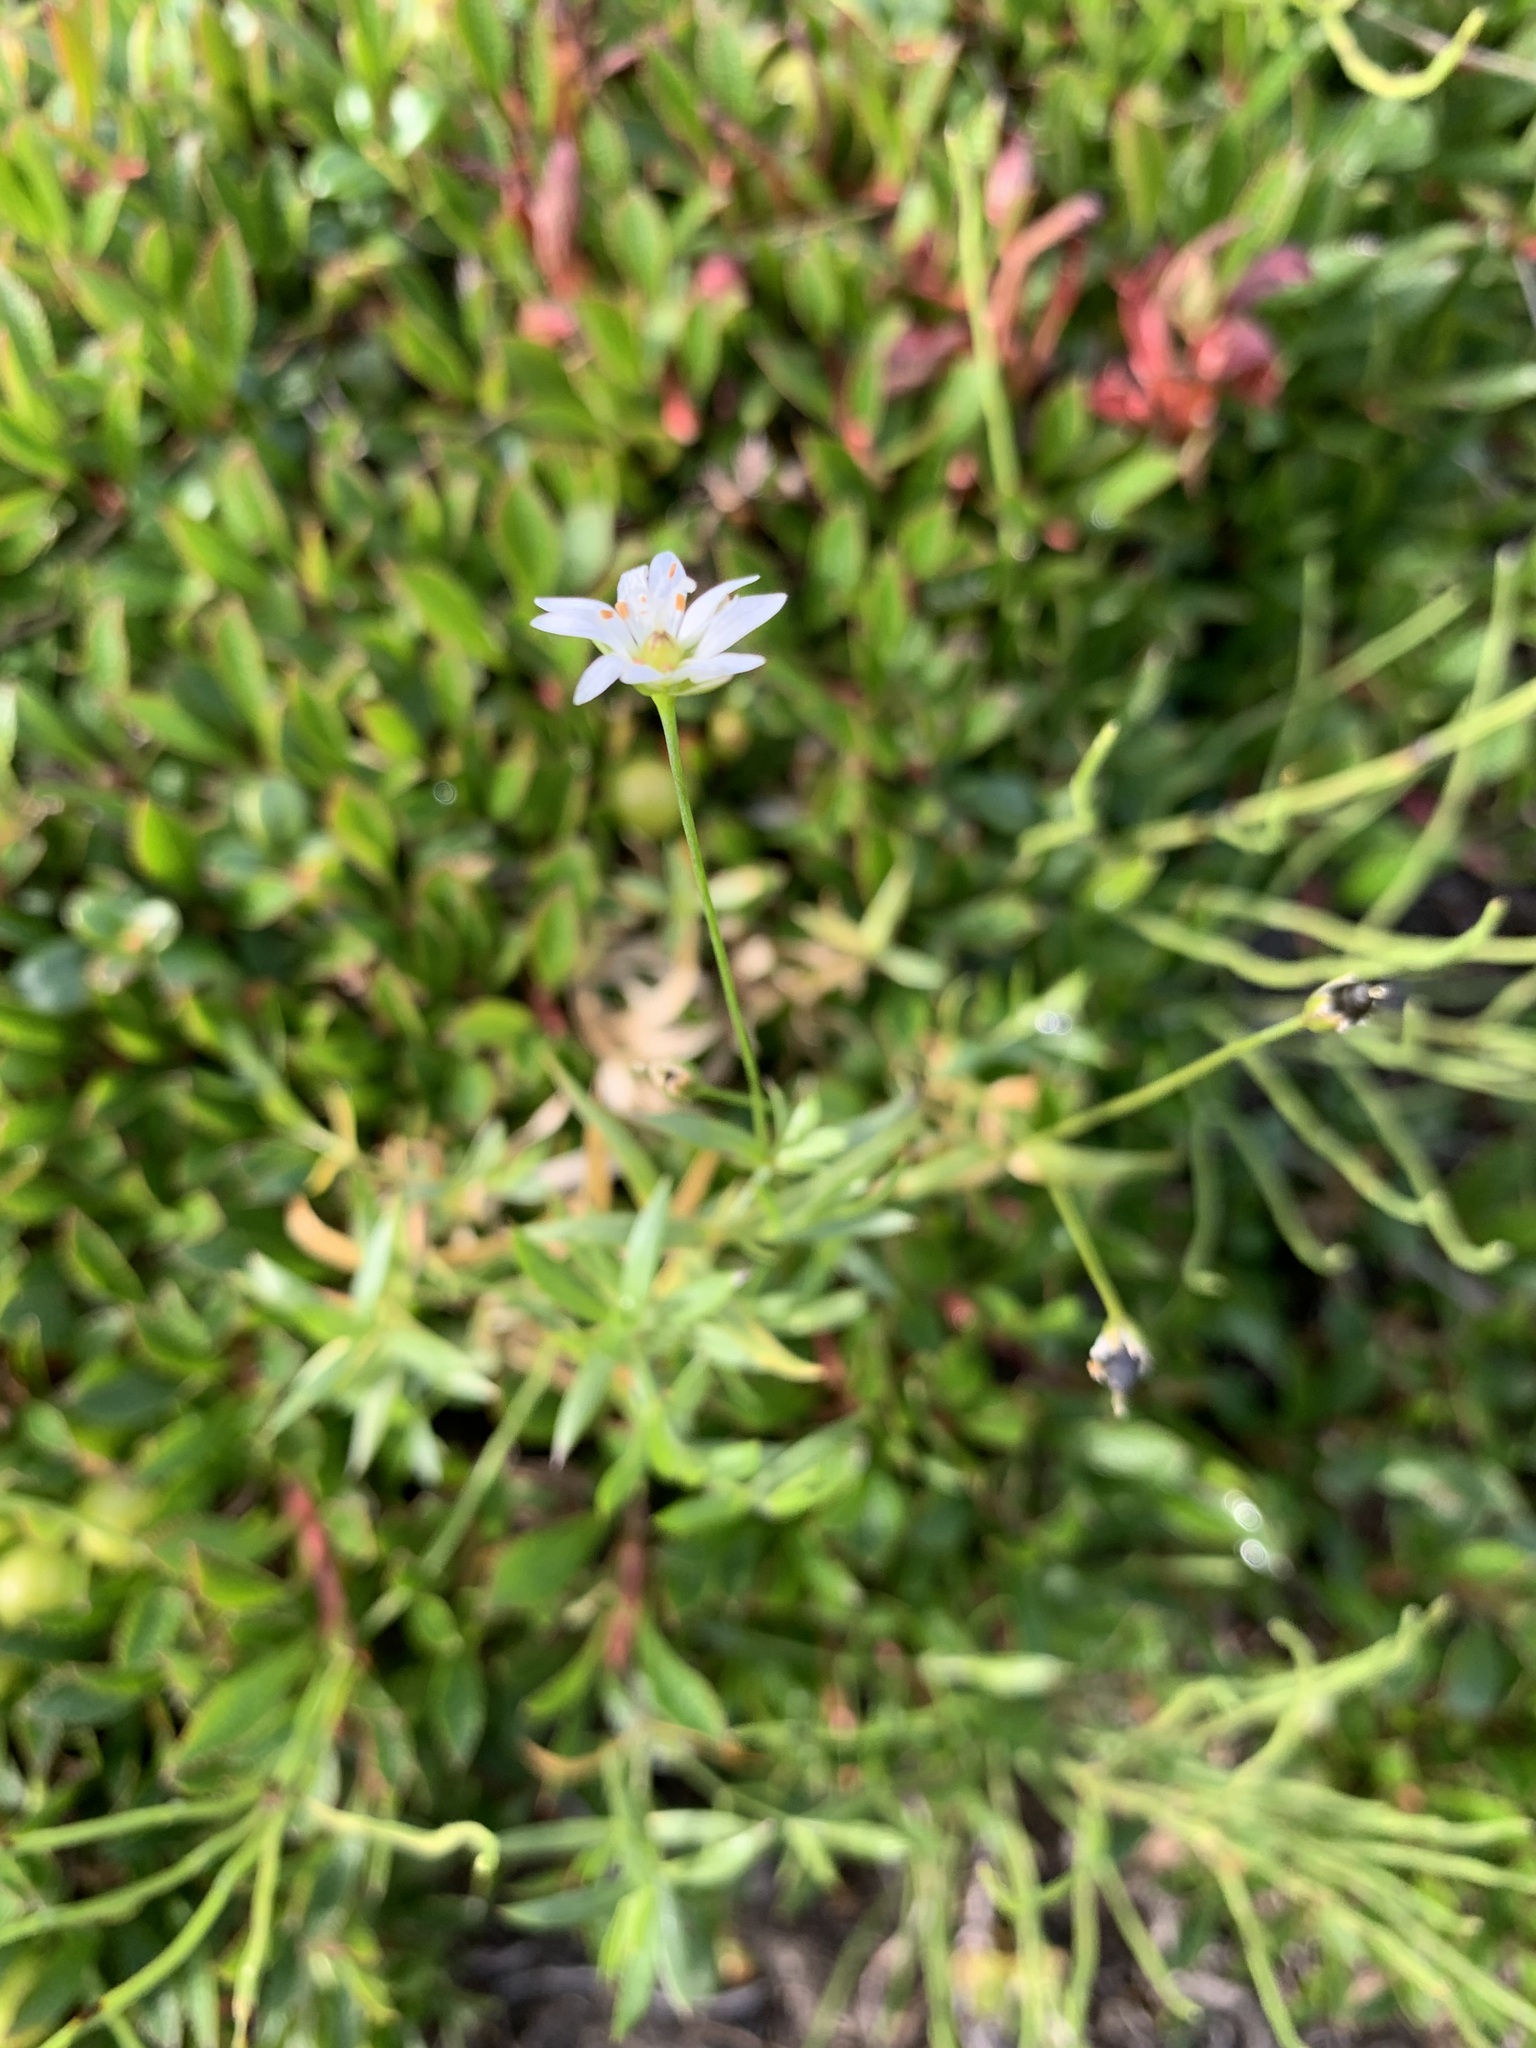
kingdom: Plantae
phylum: Tracheophyta
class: Magnoliopsida
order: Caryophyllales
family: Caryophyllaceae
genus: Stellaria
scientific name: Stellaria peduncularis
